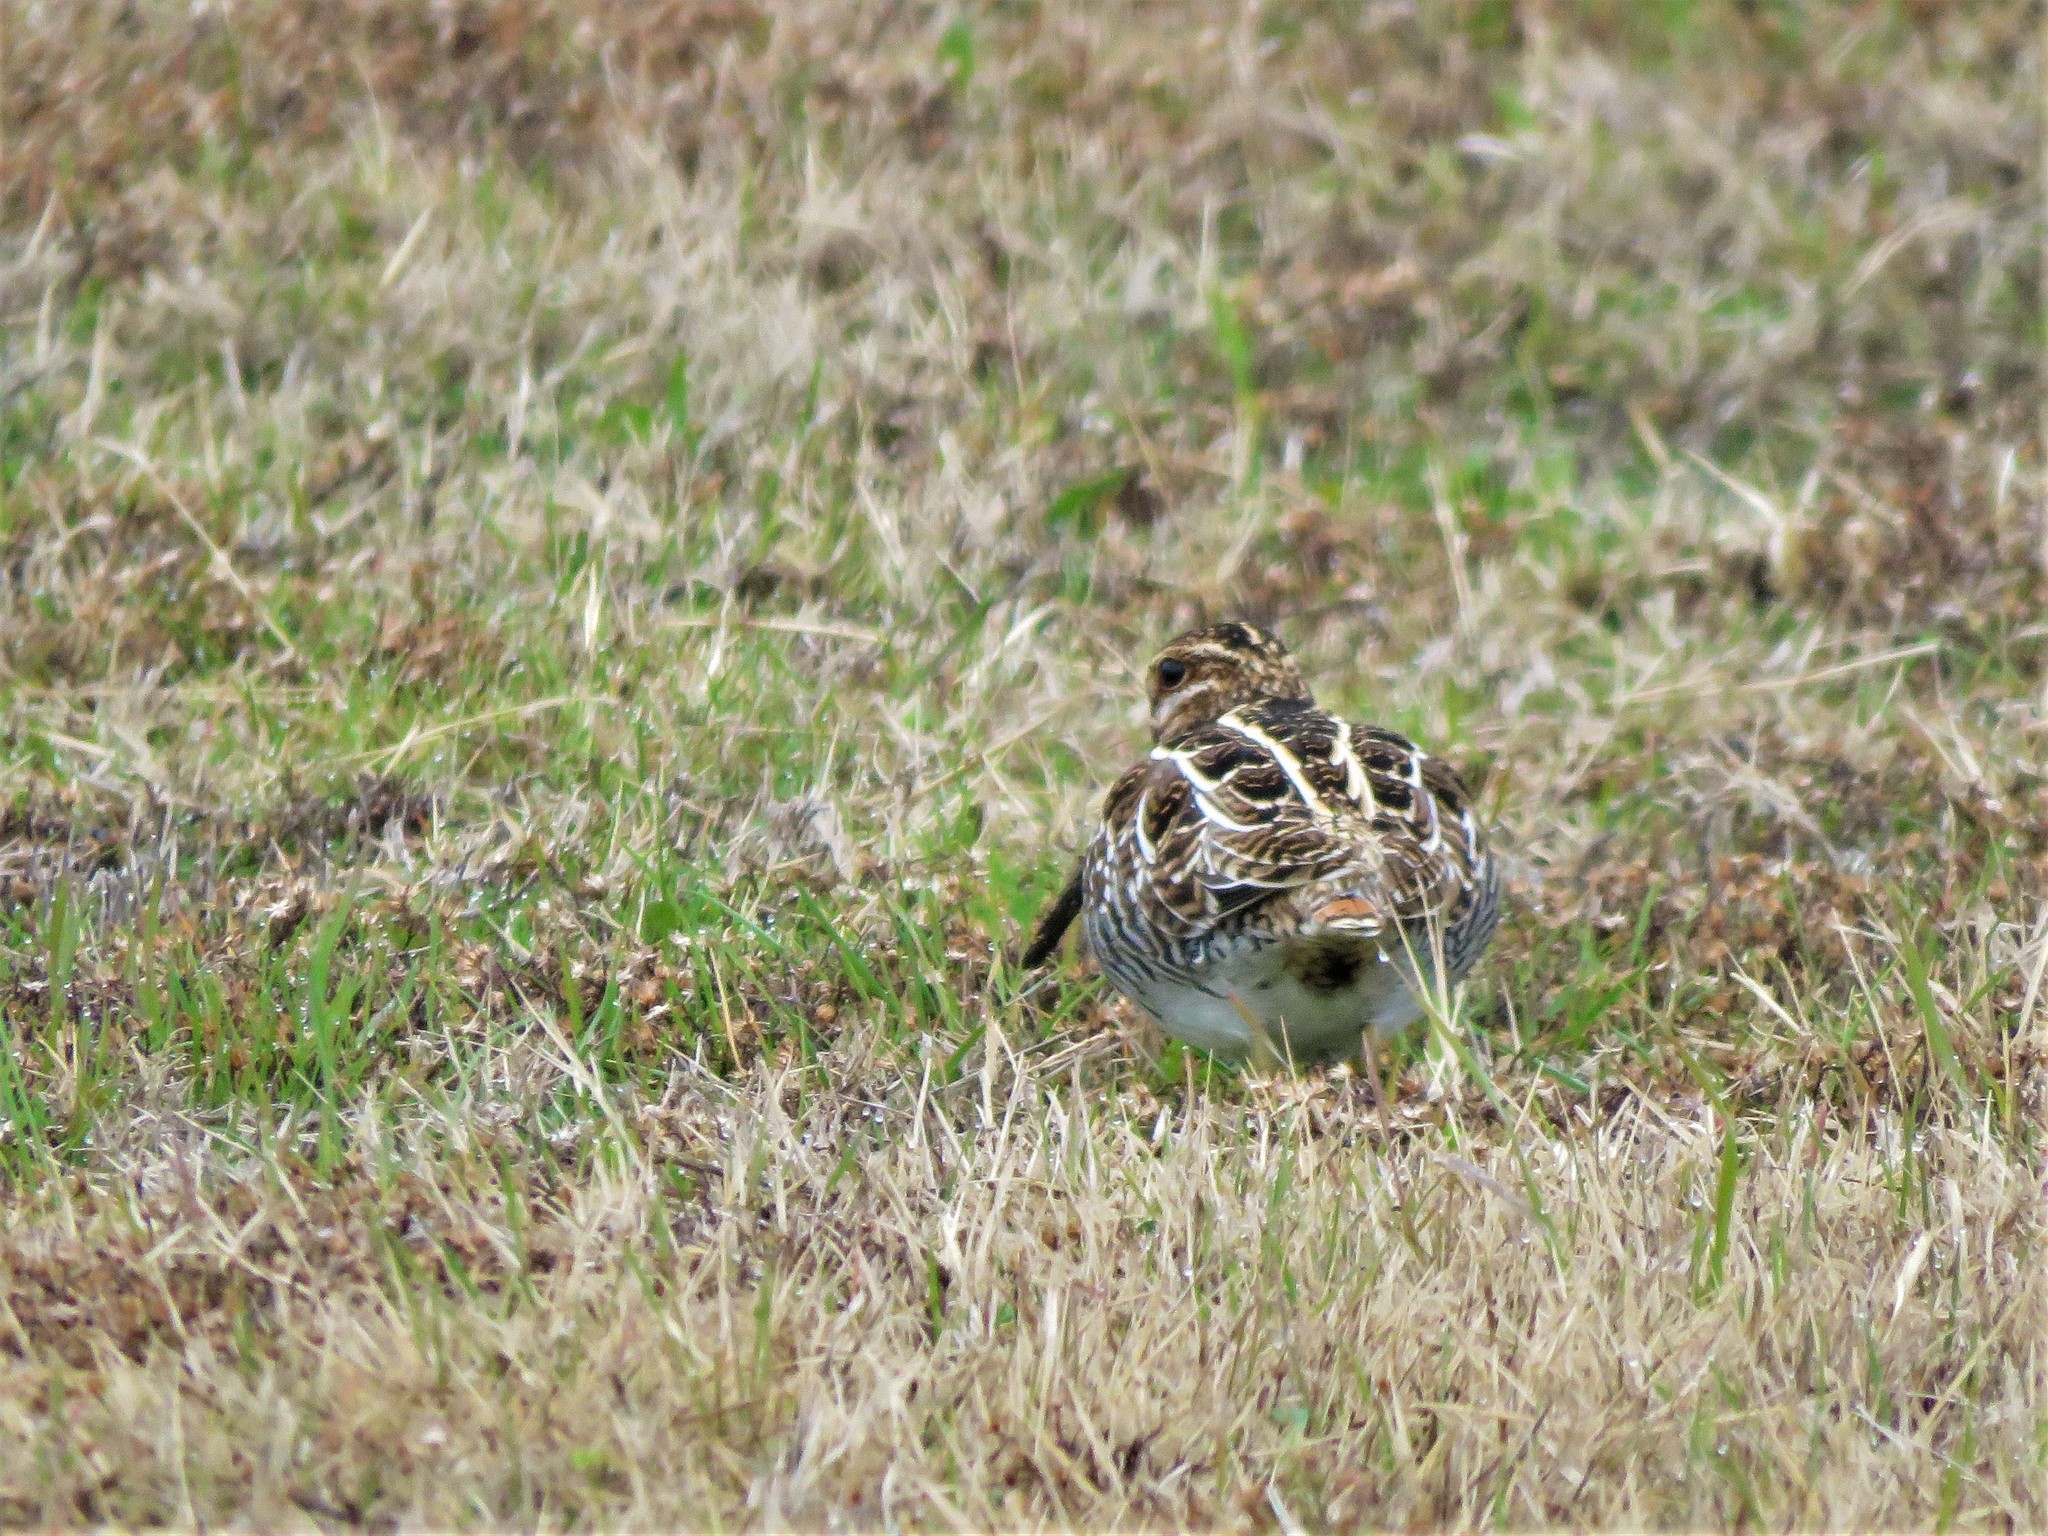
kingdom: Animalia
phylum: Chordata
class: Aves
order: Charadriiformes
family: Scolopacidae
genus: Gallinago
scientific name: Gallinago delicata
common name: Wilson's snipe
